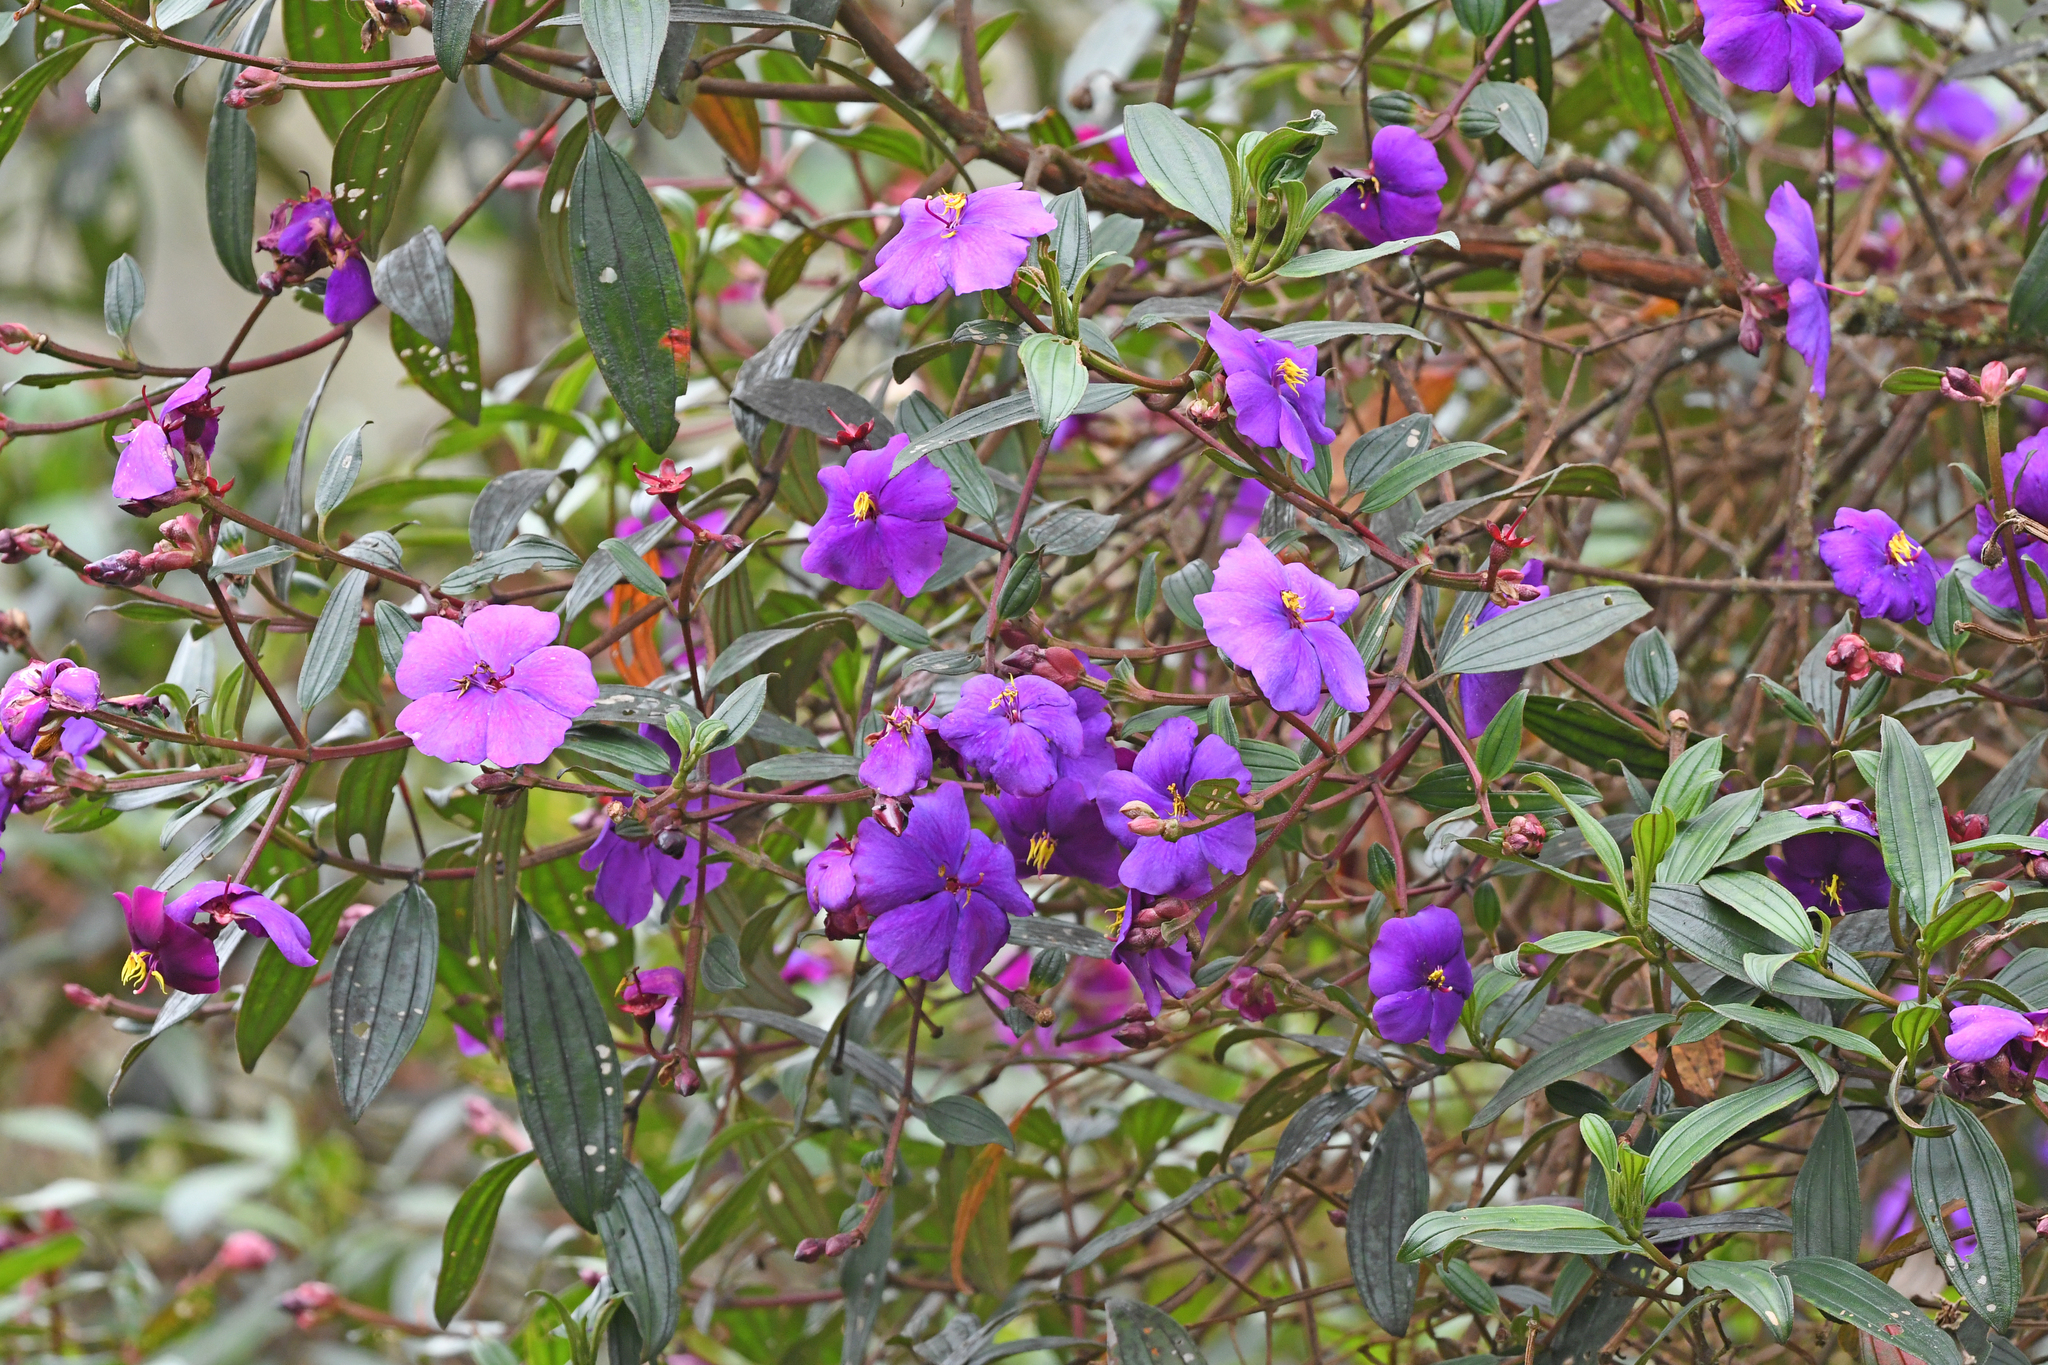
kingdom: Plantae
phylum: Tracheophyta
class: Magnoliopsida
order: Myrtales
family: Melastomataceae
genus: Andesanthus
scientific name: Andesanthus lepidotus
